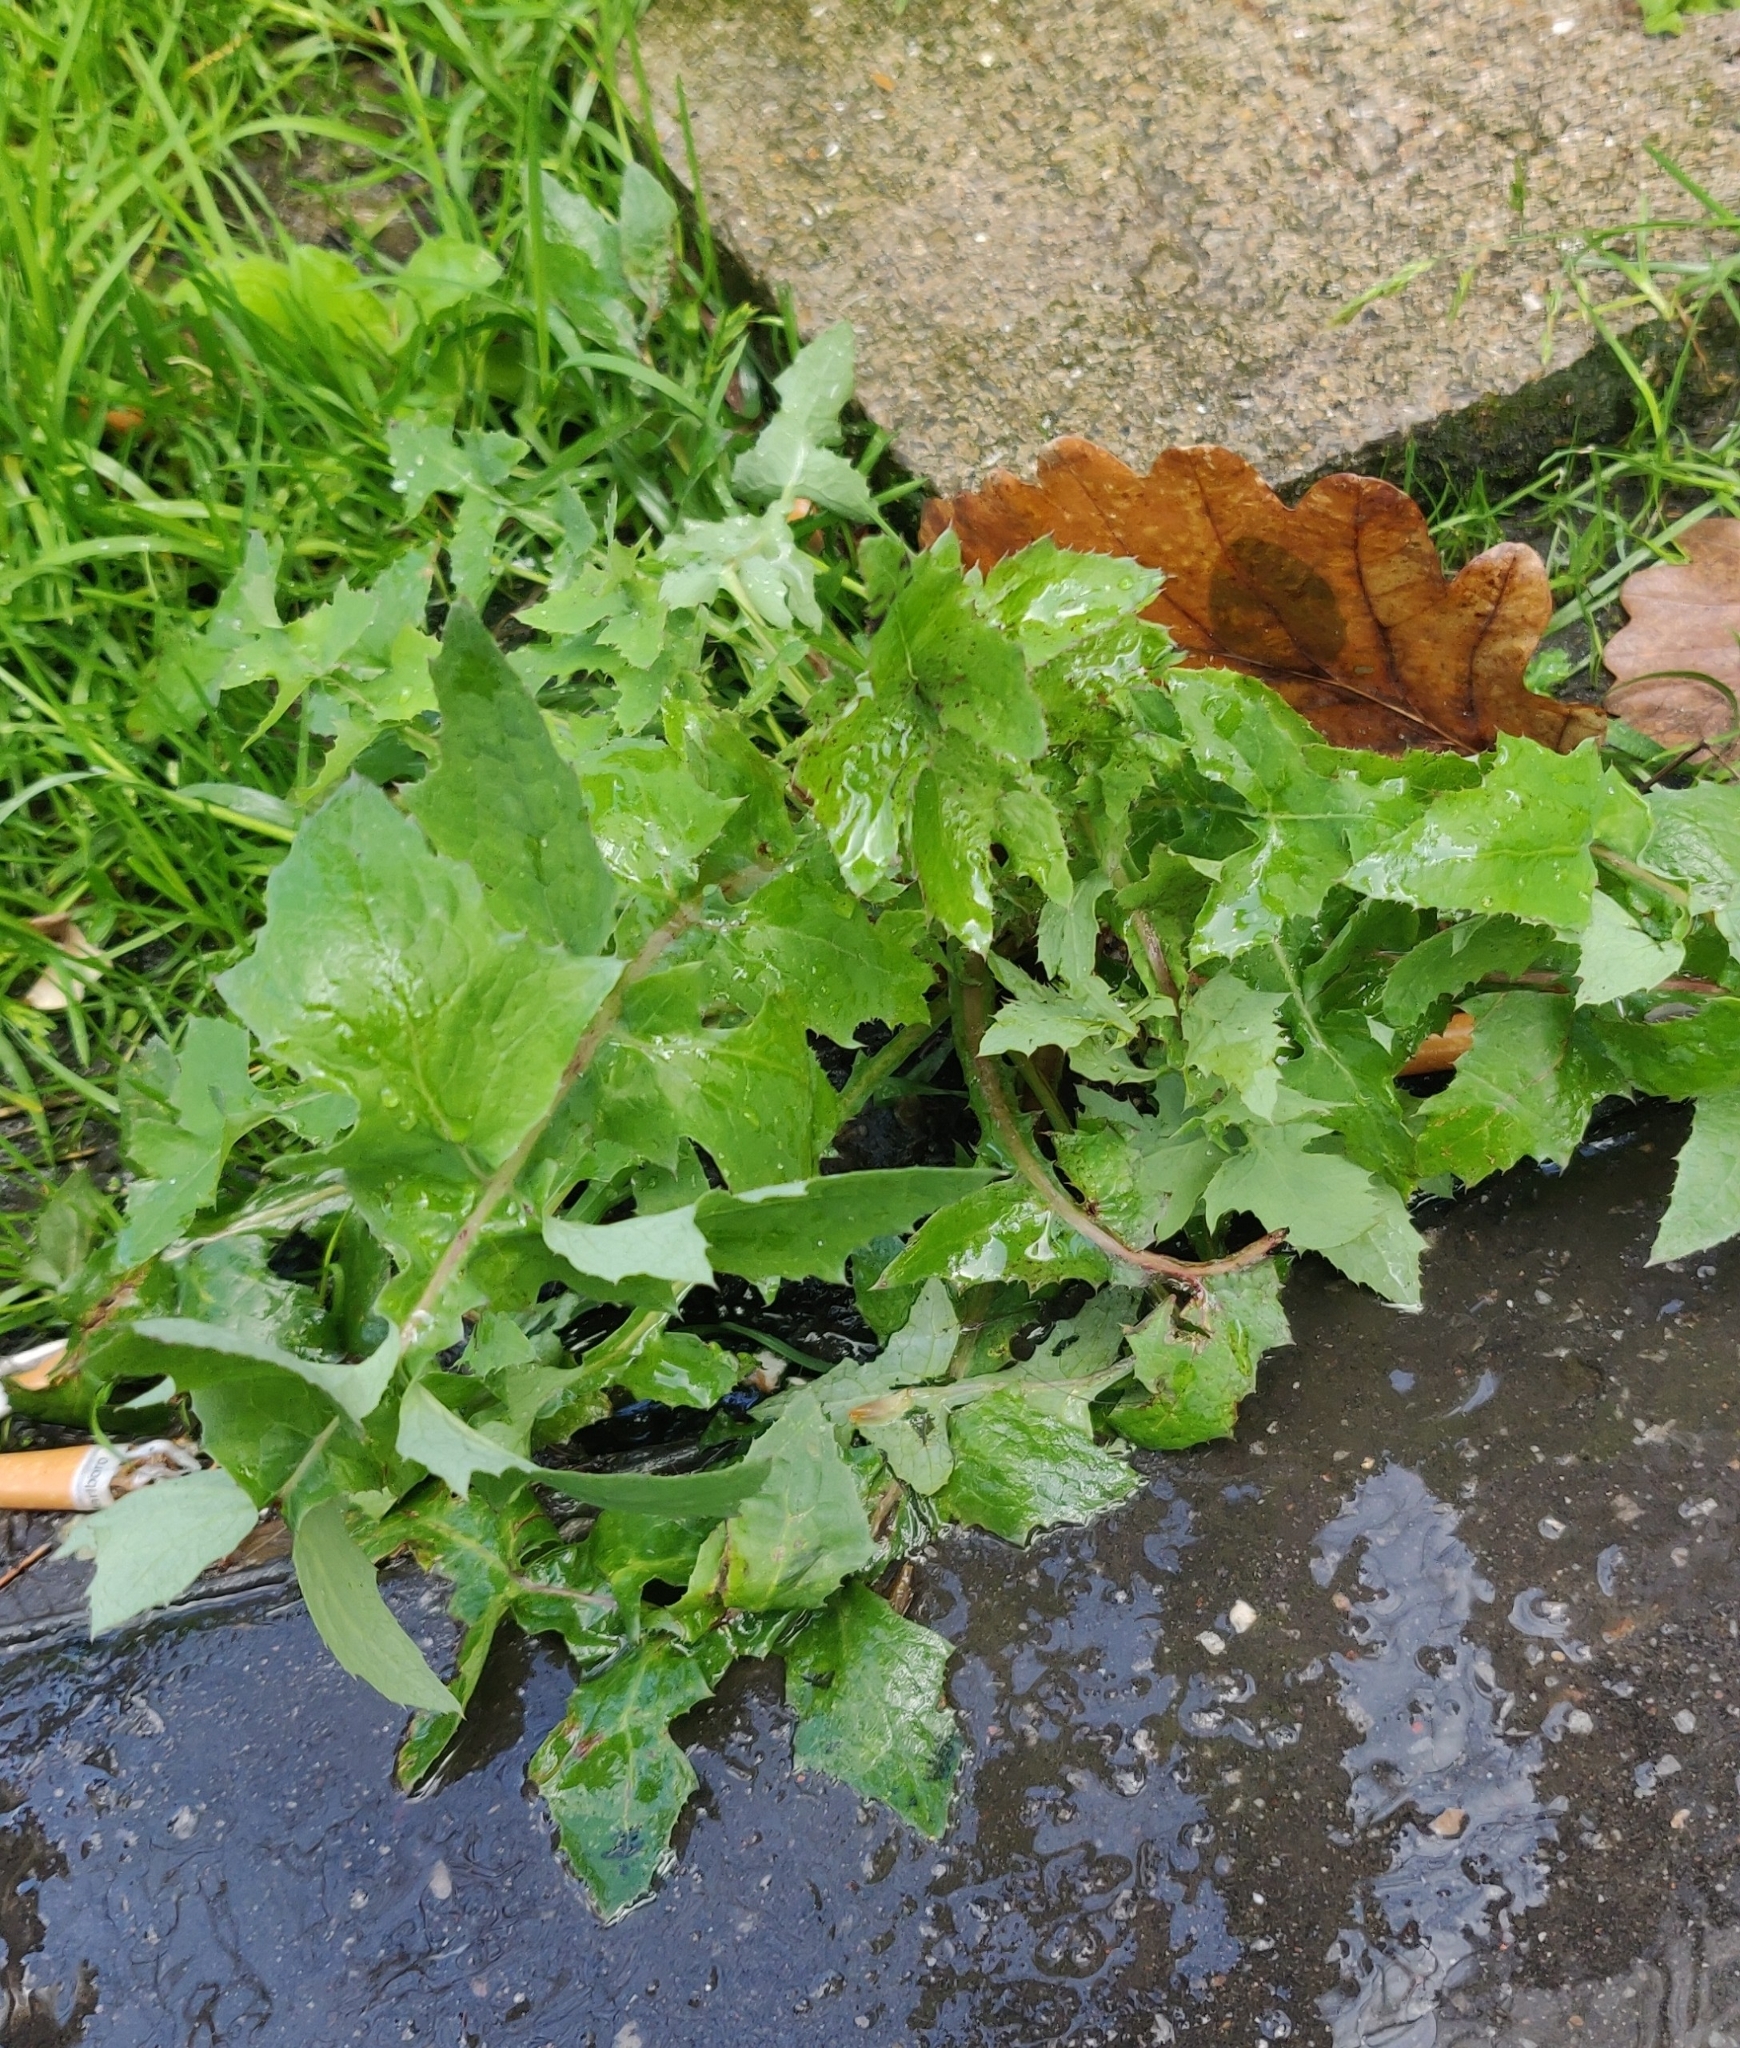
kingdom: Plantae
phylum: Tracheophyta
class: Magnoliopsida
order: Asterales
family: Asteraceae
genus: Sonchus
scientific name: Sonchus oleraceus
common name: Common sowthistle
